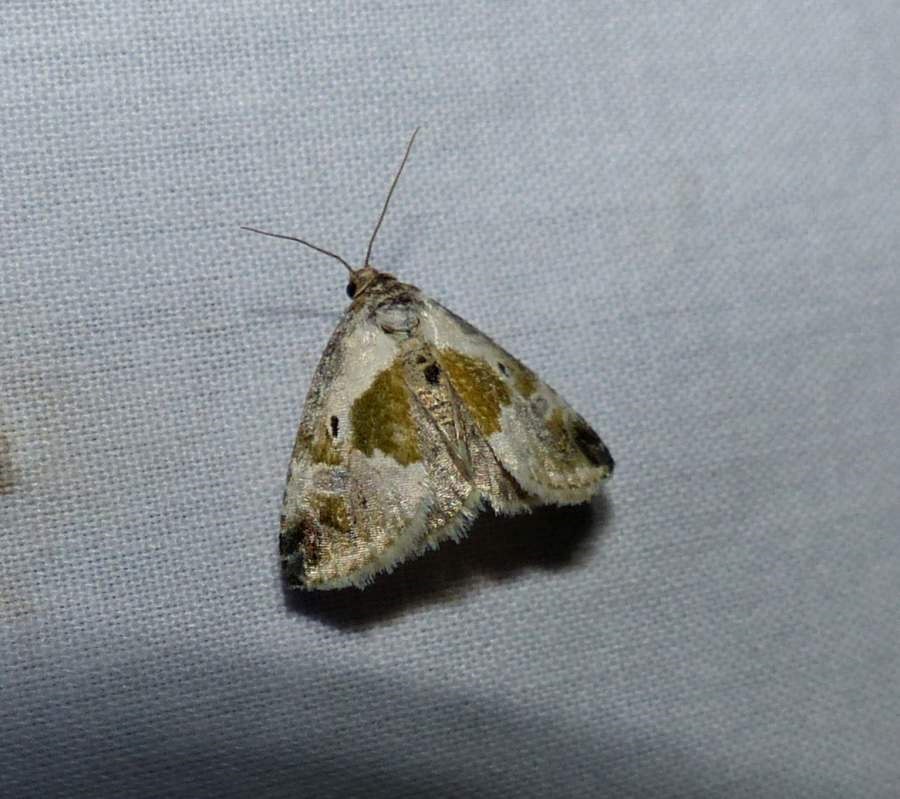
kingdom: Animalia
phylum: Arthropoda
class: Insecta
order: Lepidoptera
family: Noctuidae
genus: Maliattha
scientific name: Maliattha synochitis
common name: Black-dotted glyph
